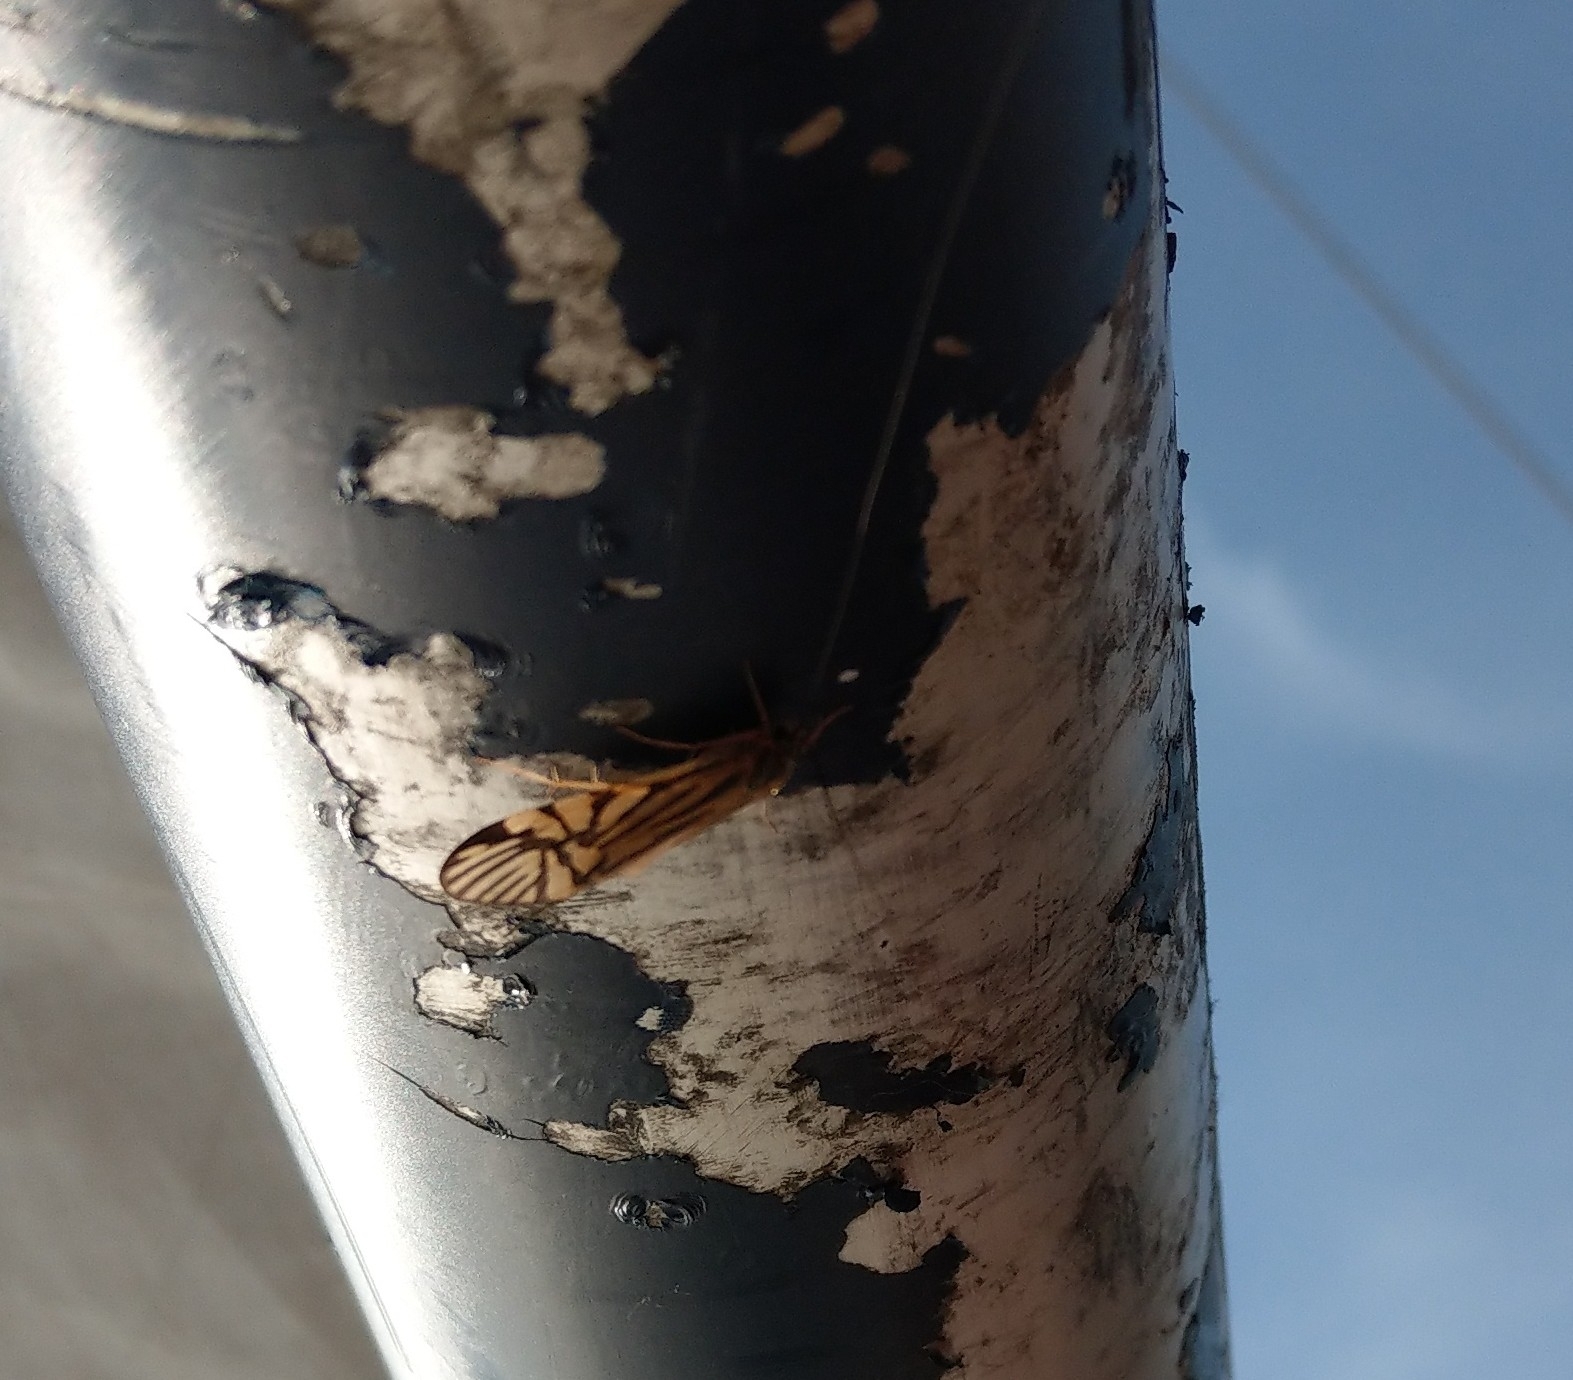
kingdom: Animalia
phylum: Arthropoda
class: Insecta
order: Trichoptera
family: Hydropsychidae
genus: Macrostemum
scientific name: Macrostemum radiatum
